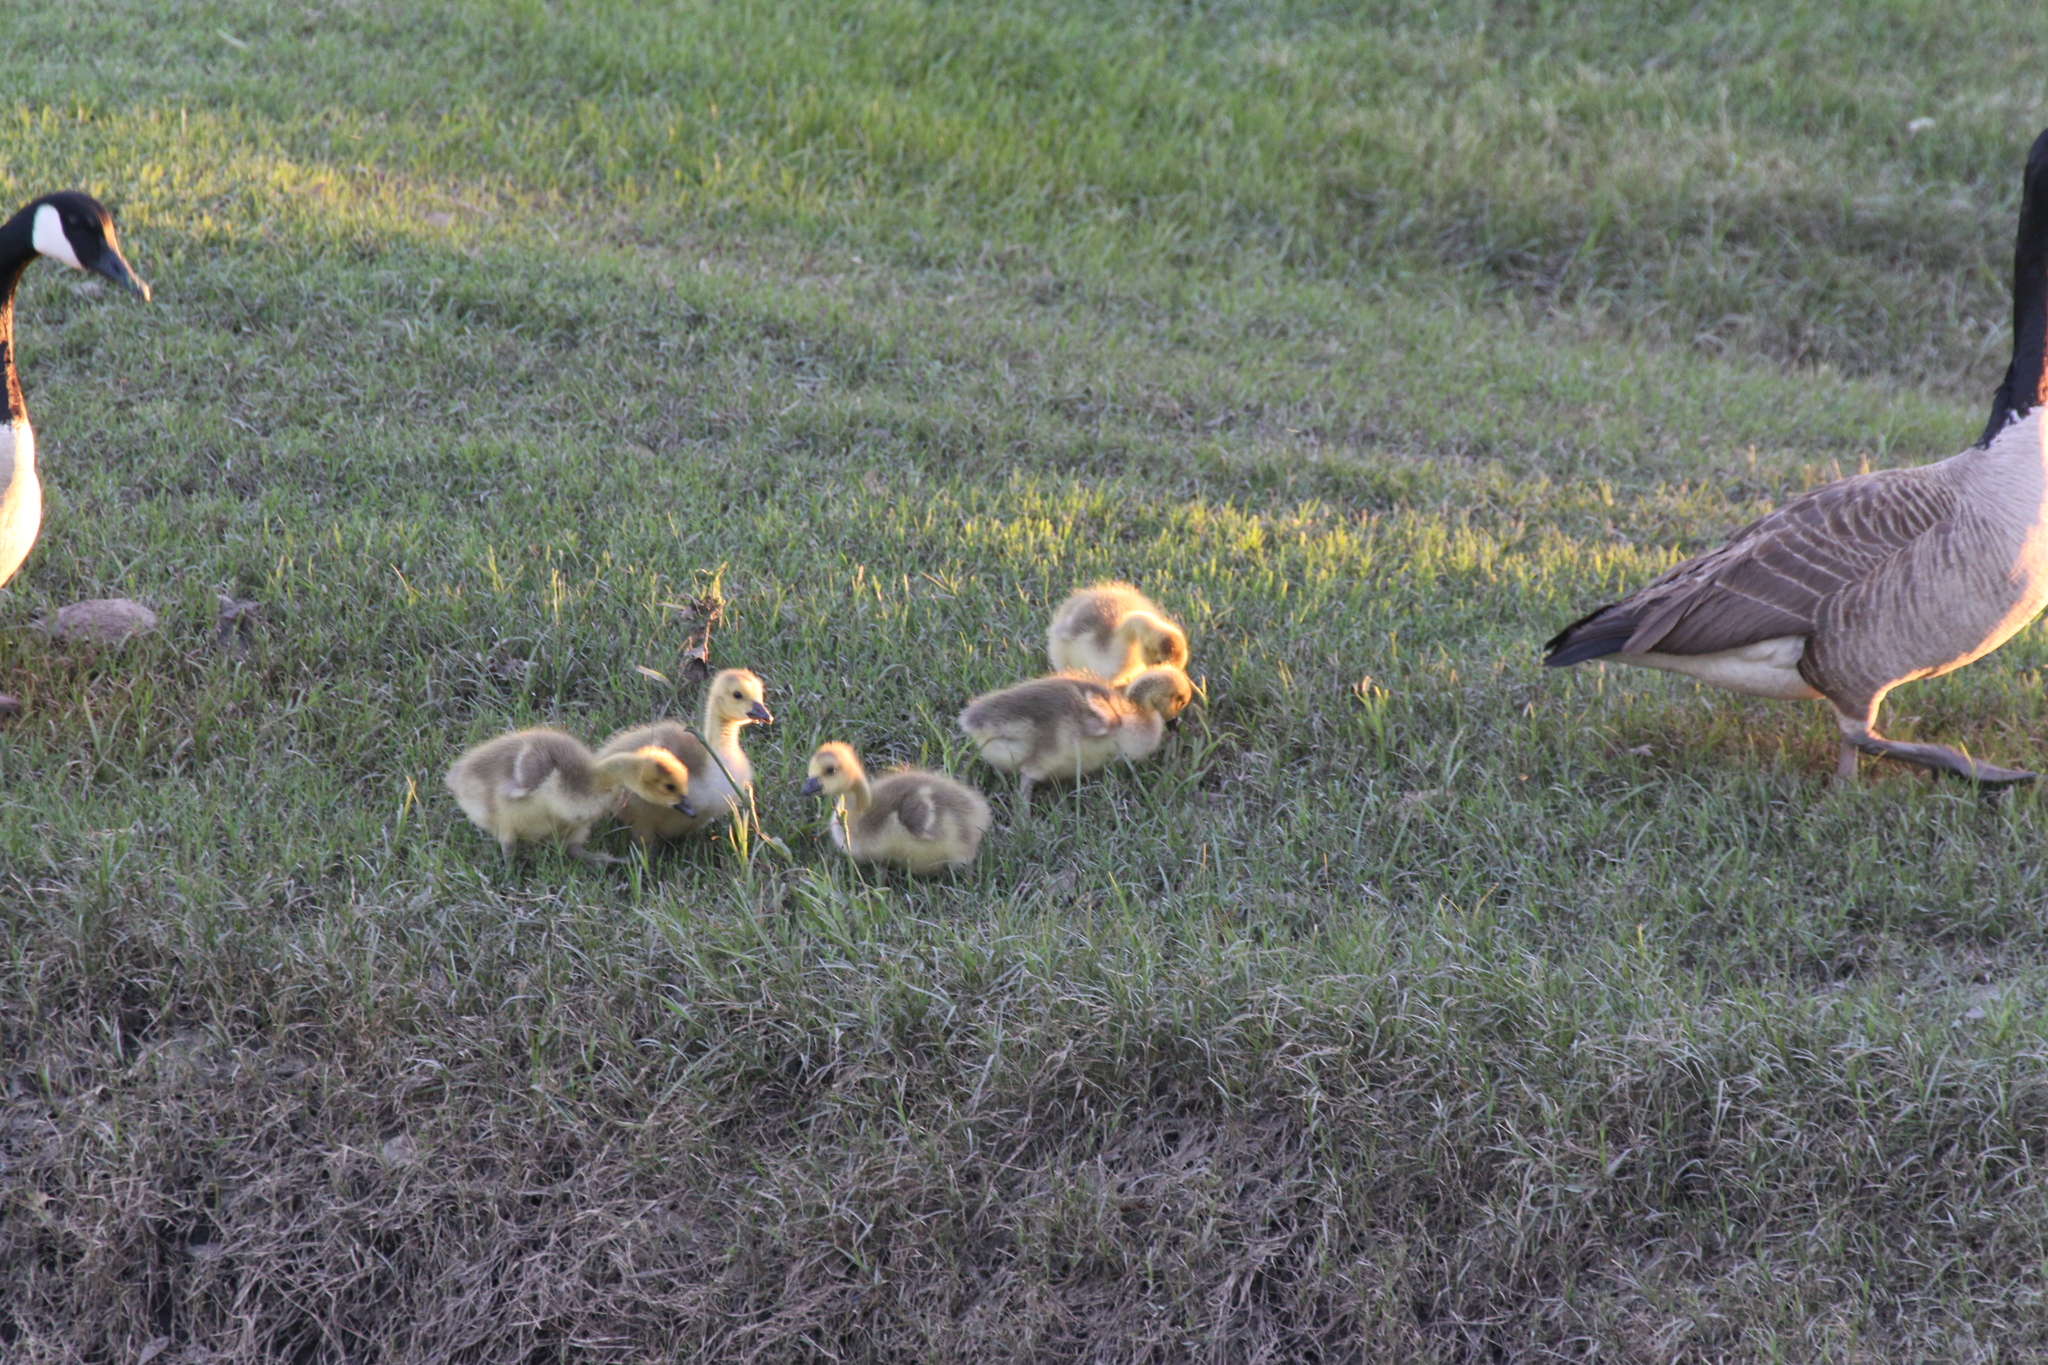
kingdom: Animalia
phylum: Chordata
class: Aves
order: Anseriformes
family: Anatidae
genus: Branta
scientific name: Branta canadensis
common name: Canada goose
